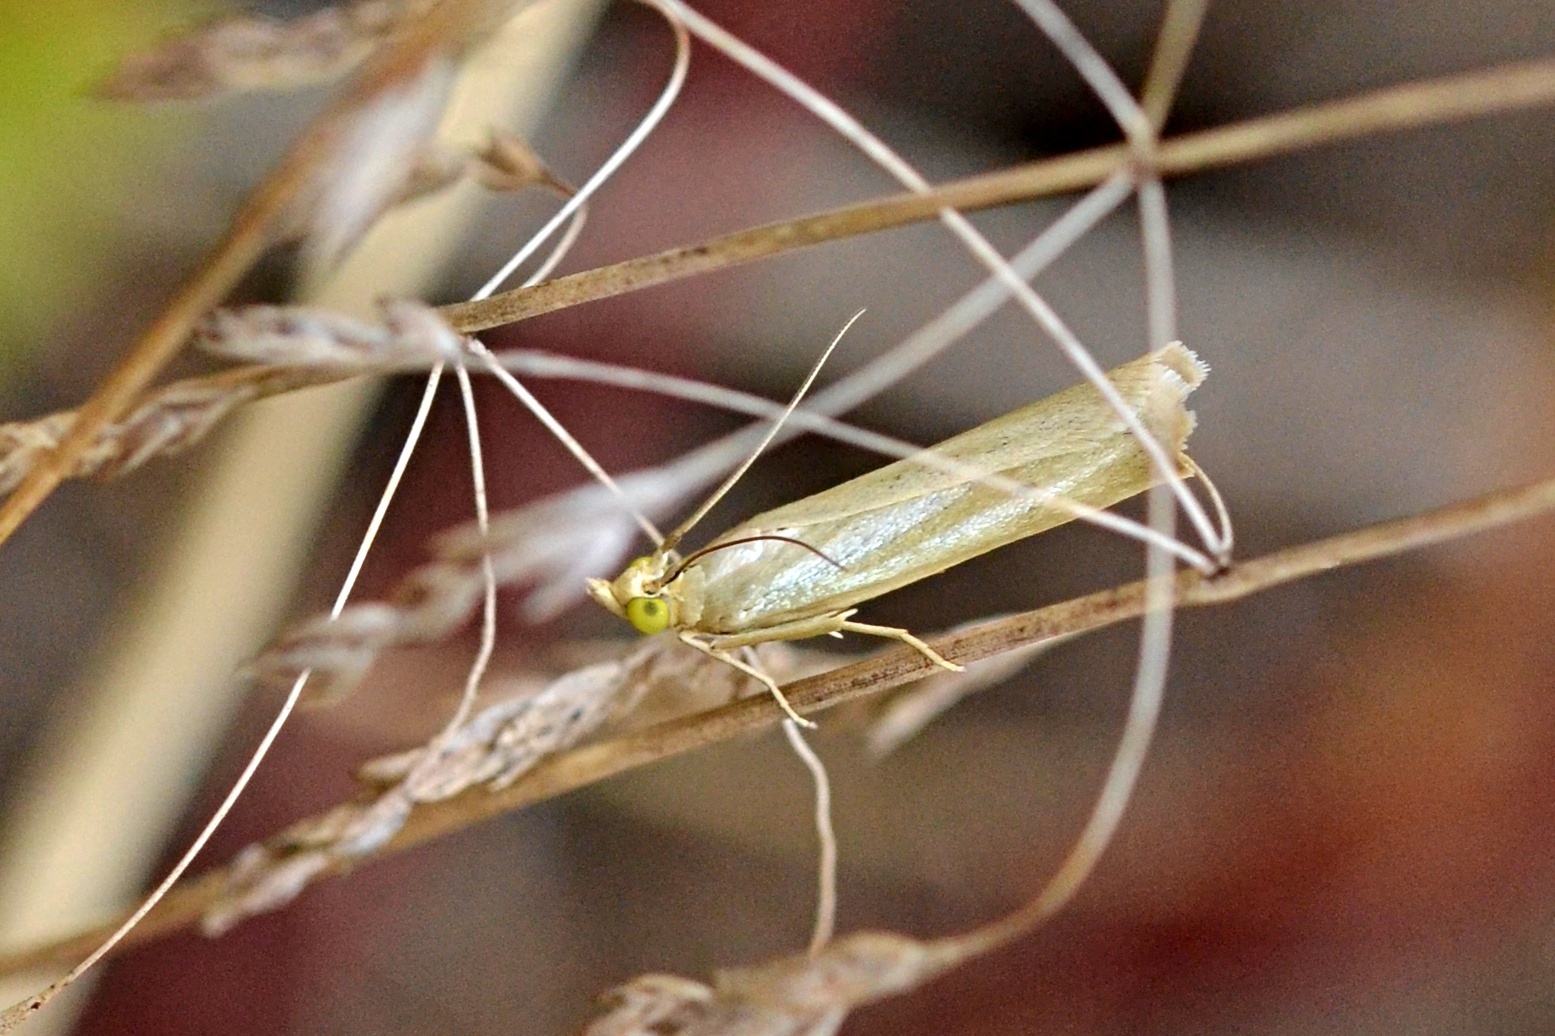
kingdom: Animalia
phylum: Arthropoda
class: Insecta
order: Lepidoptera
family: Pyralidae
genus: Selagia
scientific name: Selagia argyrella
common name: Silvery knot-horn
